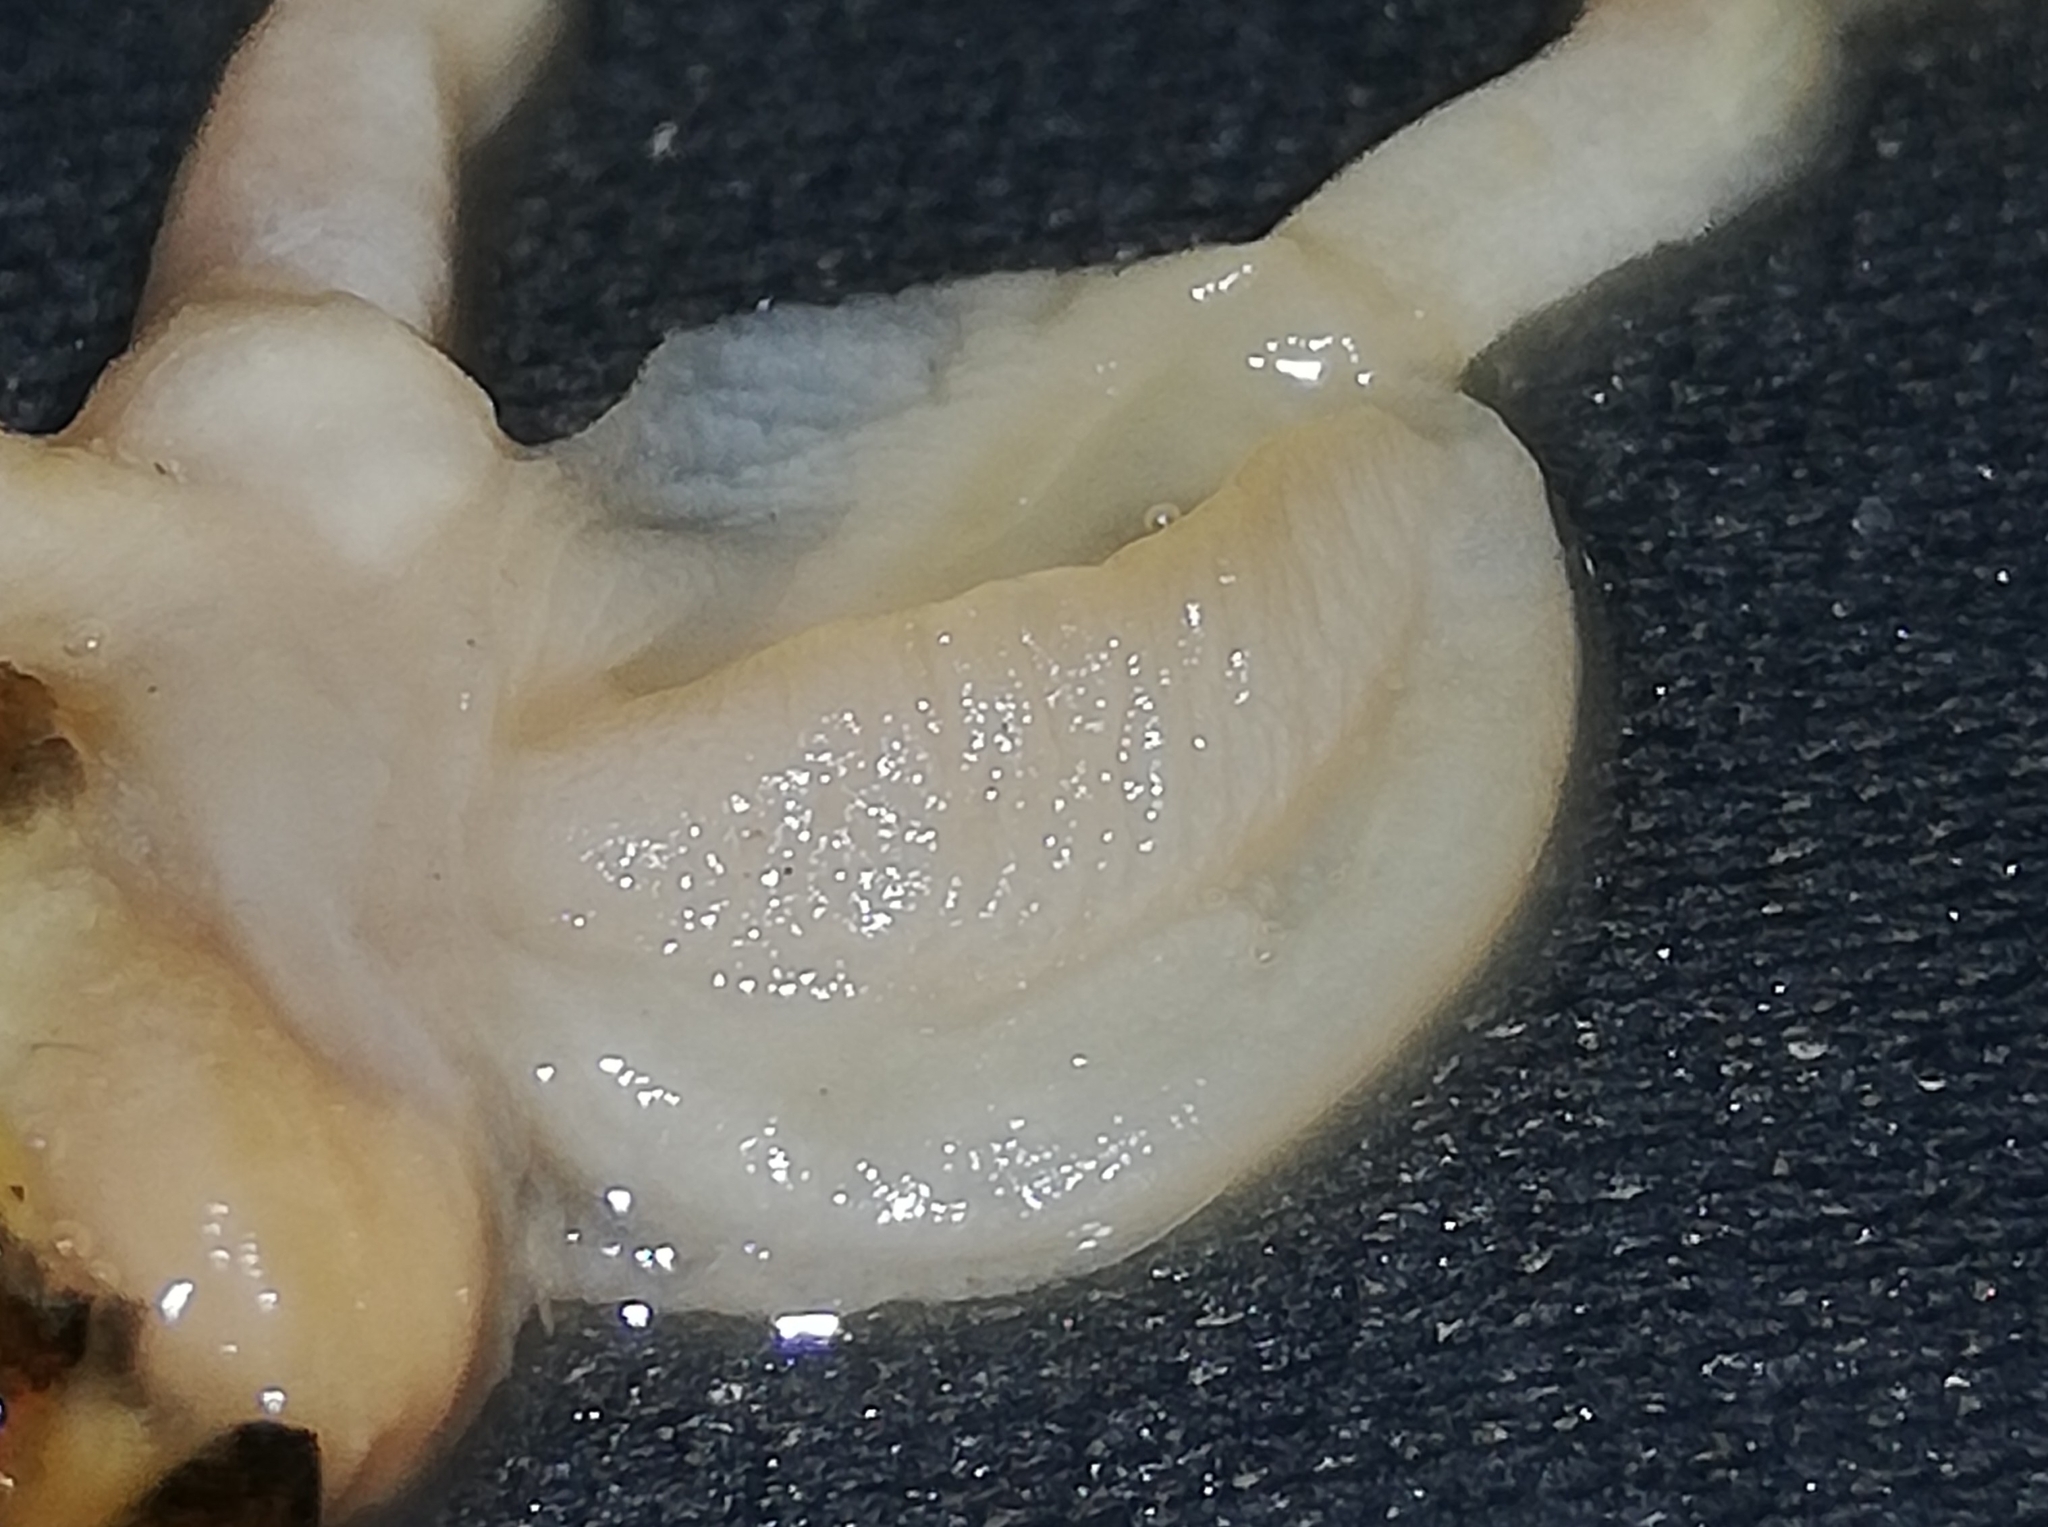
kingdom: Animalia
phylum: Mollusca
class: Gastropoda
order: Stylommatophora
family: Arionidae
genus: Arion
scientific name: Arion vulgaris
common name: Lusitanian slug
